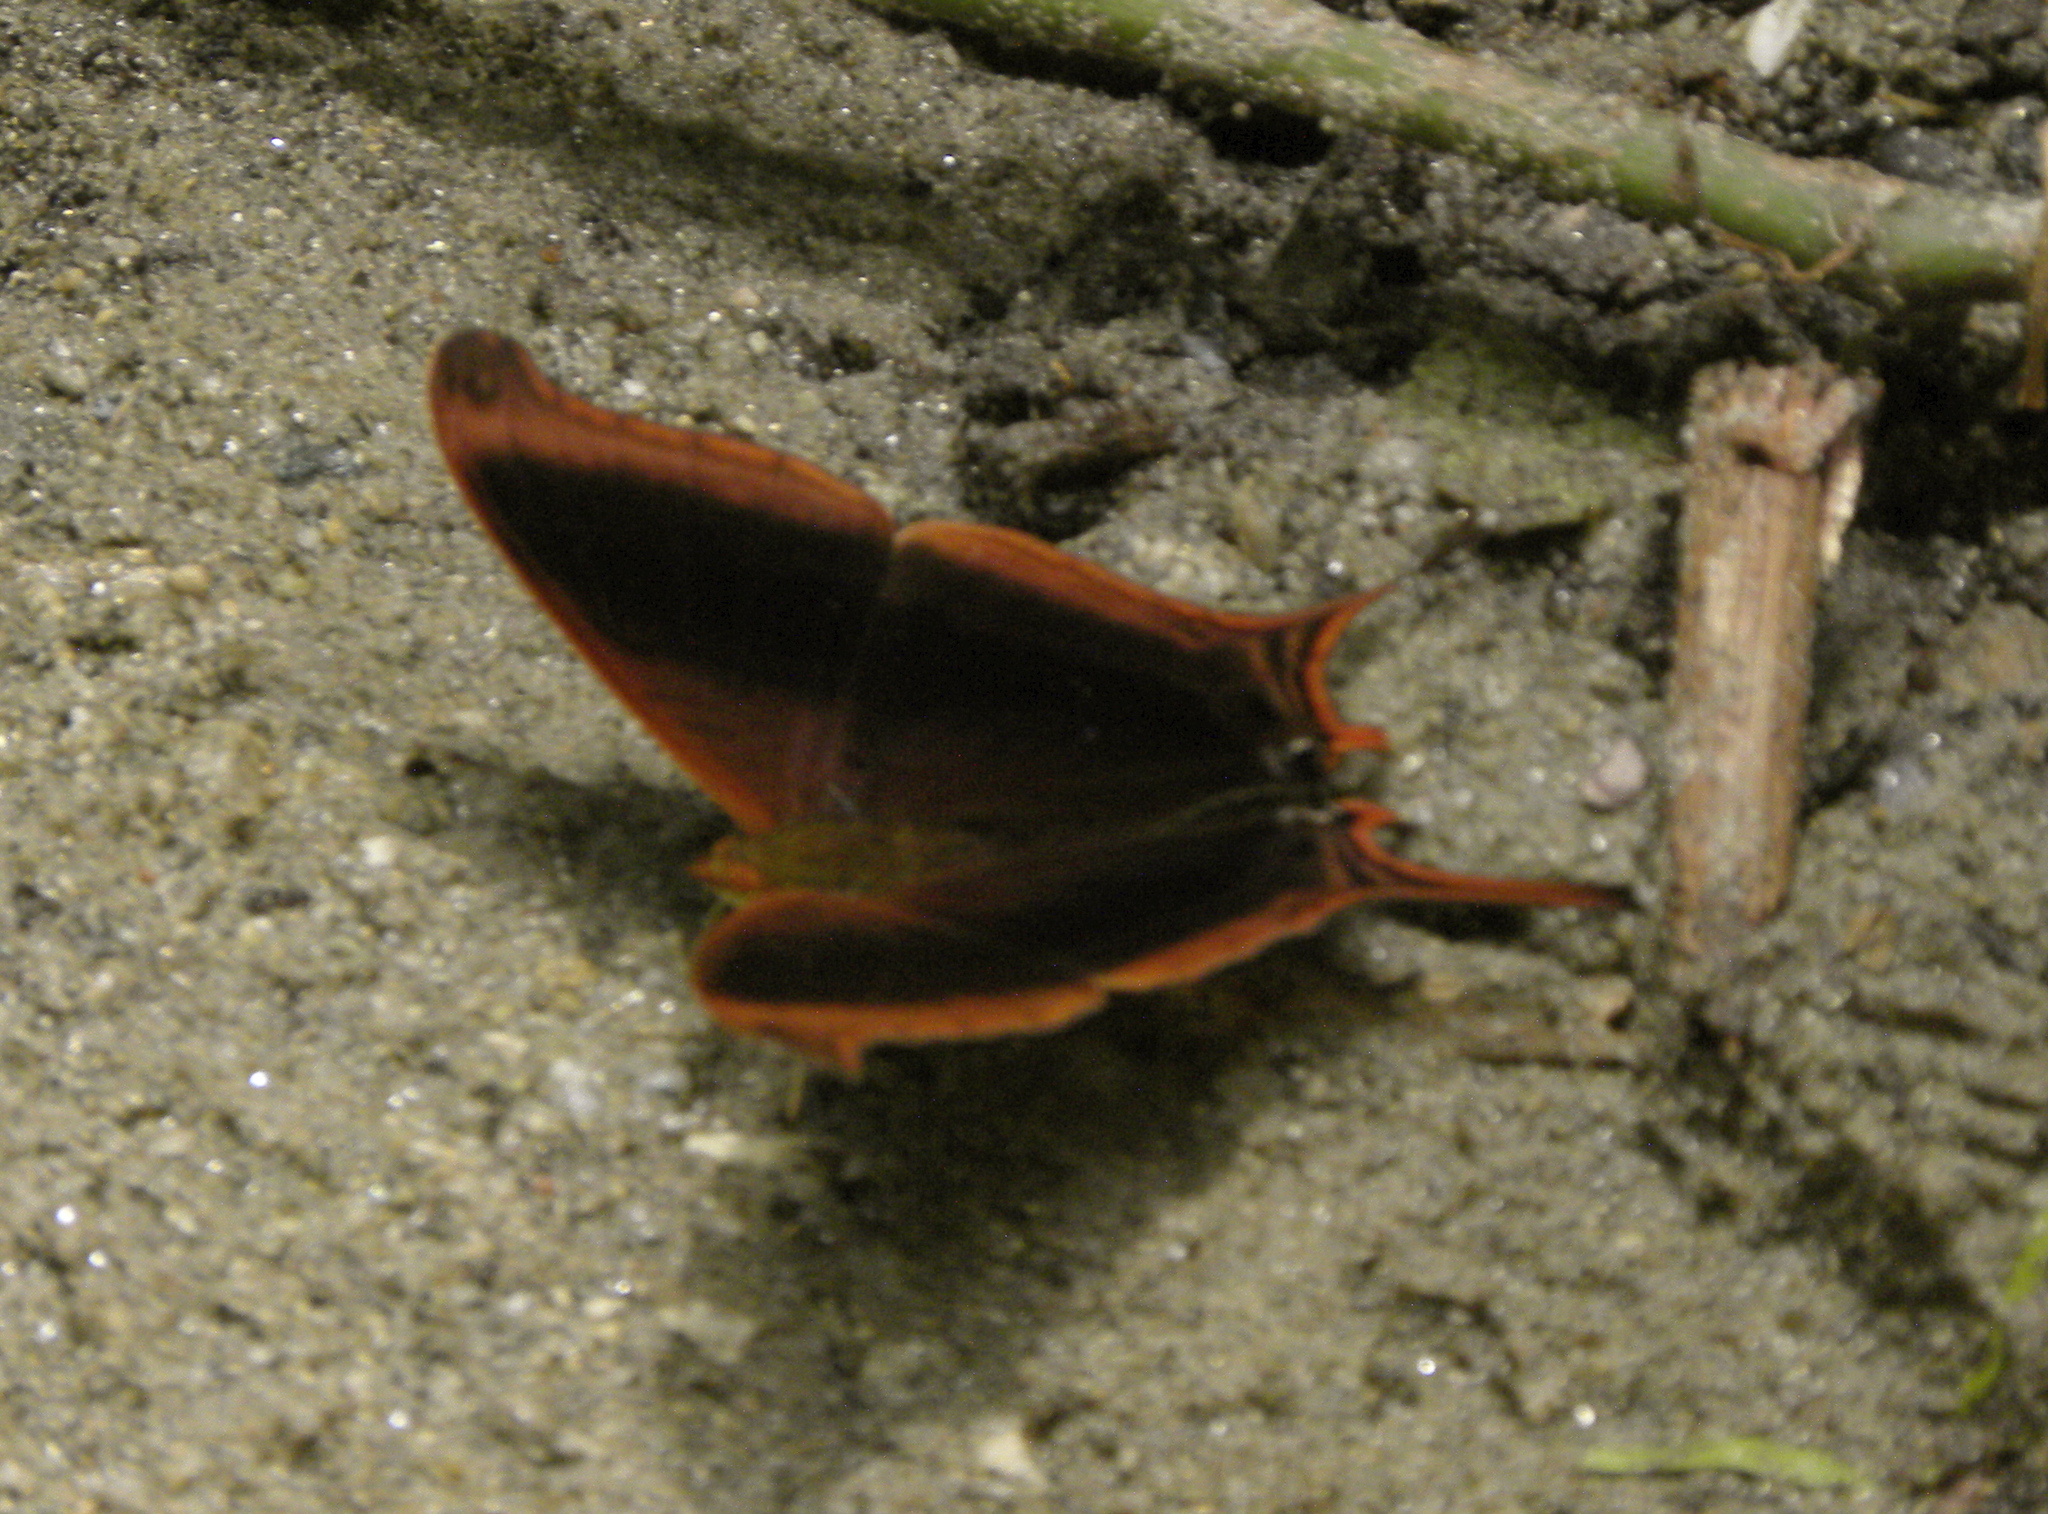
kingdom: Animalia
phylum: Arthropoda
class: Insecta
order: Lepidoptera
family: Nymphalidae
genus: Marpesia
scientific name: Marpesia zerynthia
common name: Waiter daggerwing
